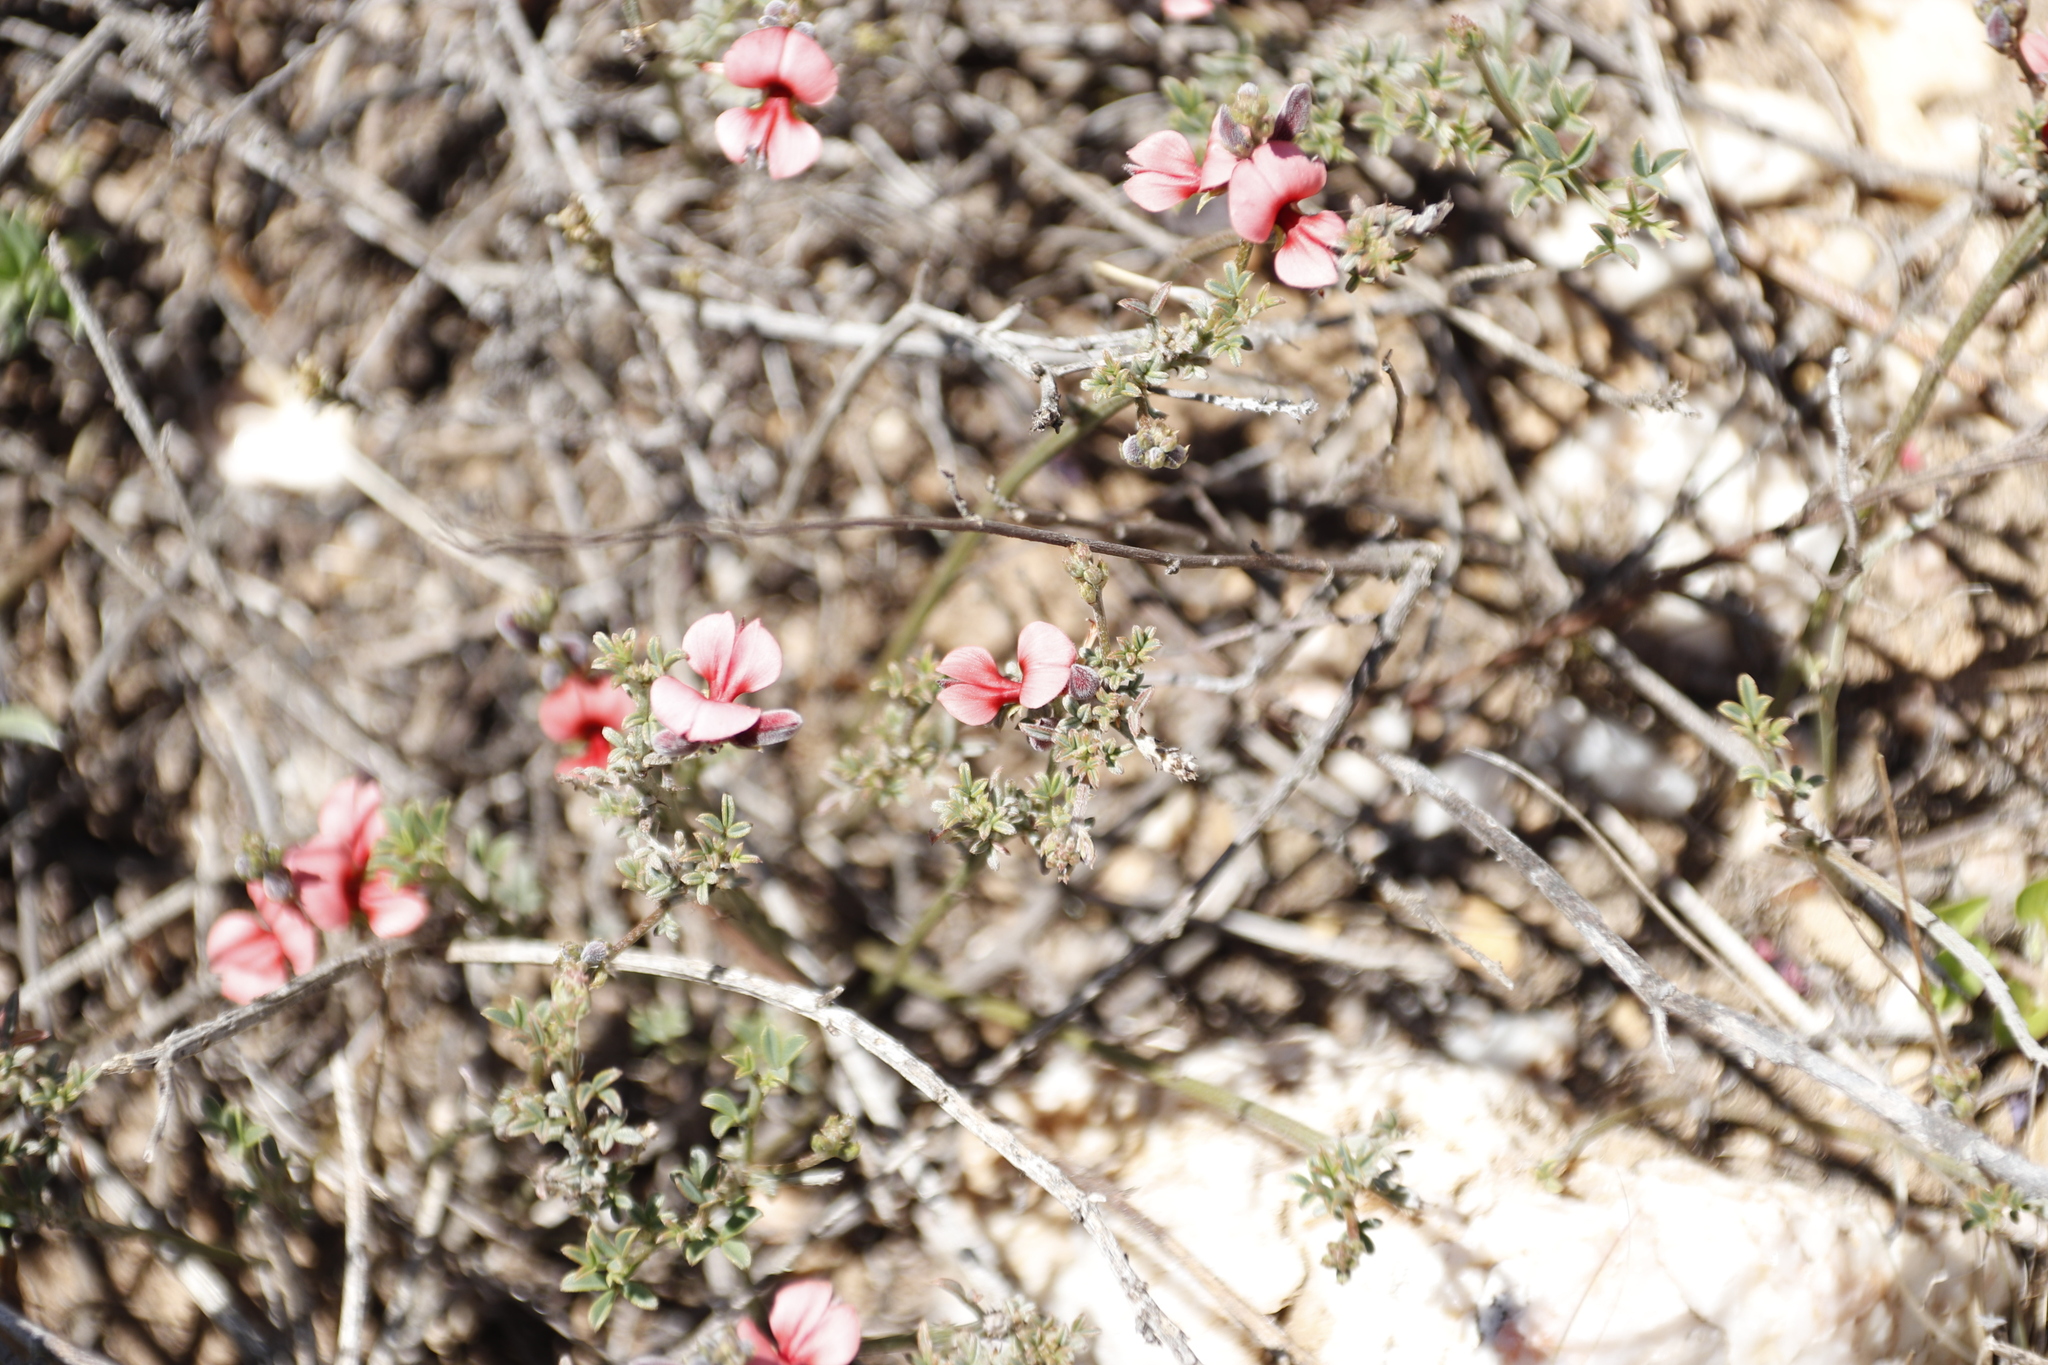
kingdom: Plantae
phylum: Tracheophyta
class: Magnoliopsida
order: Fabales
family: Fabaceae
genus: Indigofera
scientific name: Indigofera heterophylla
